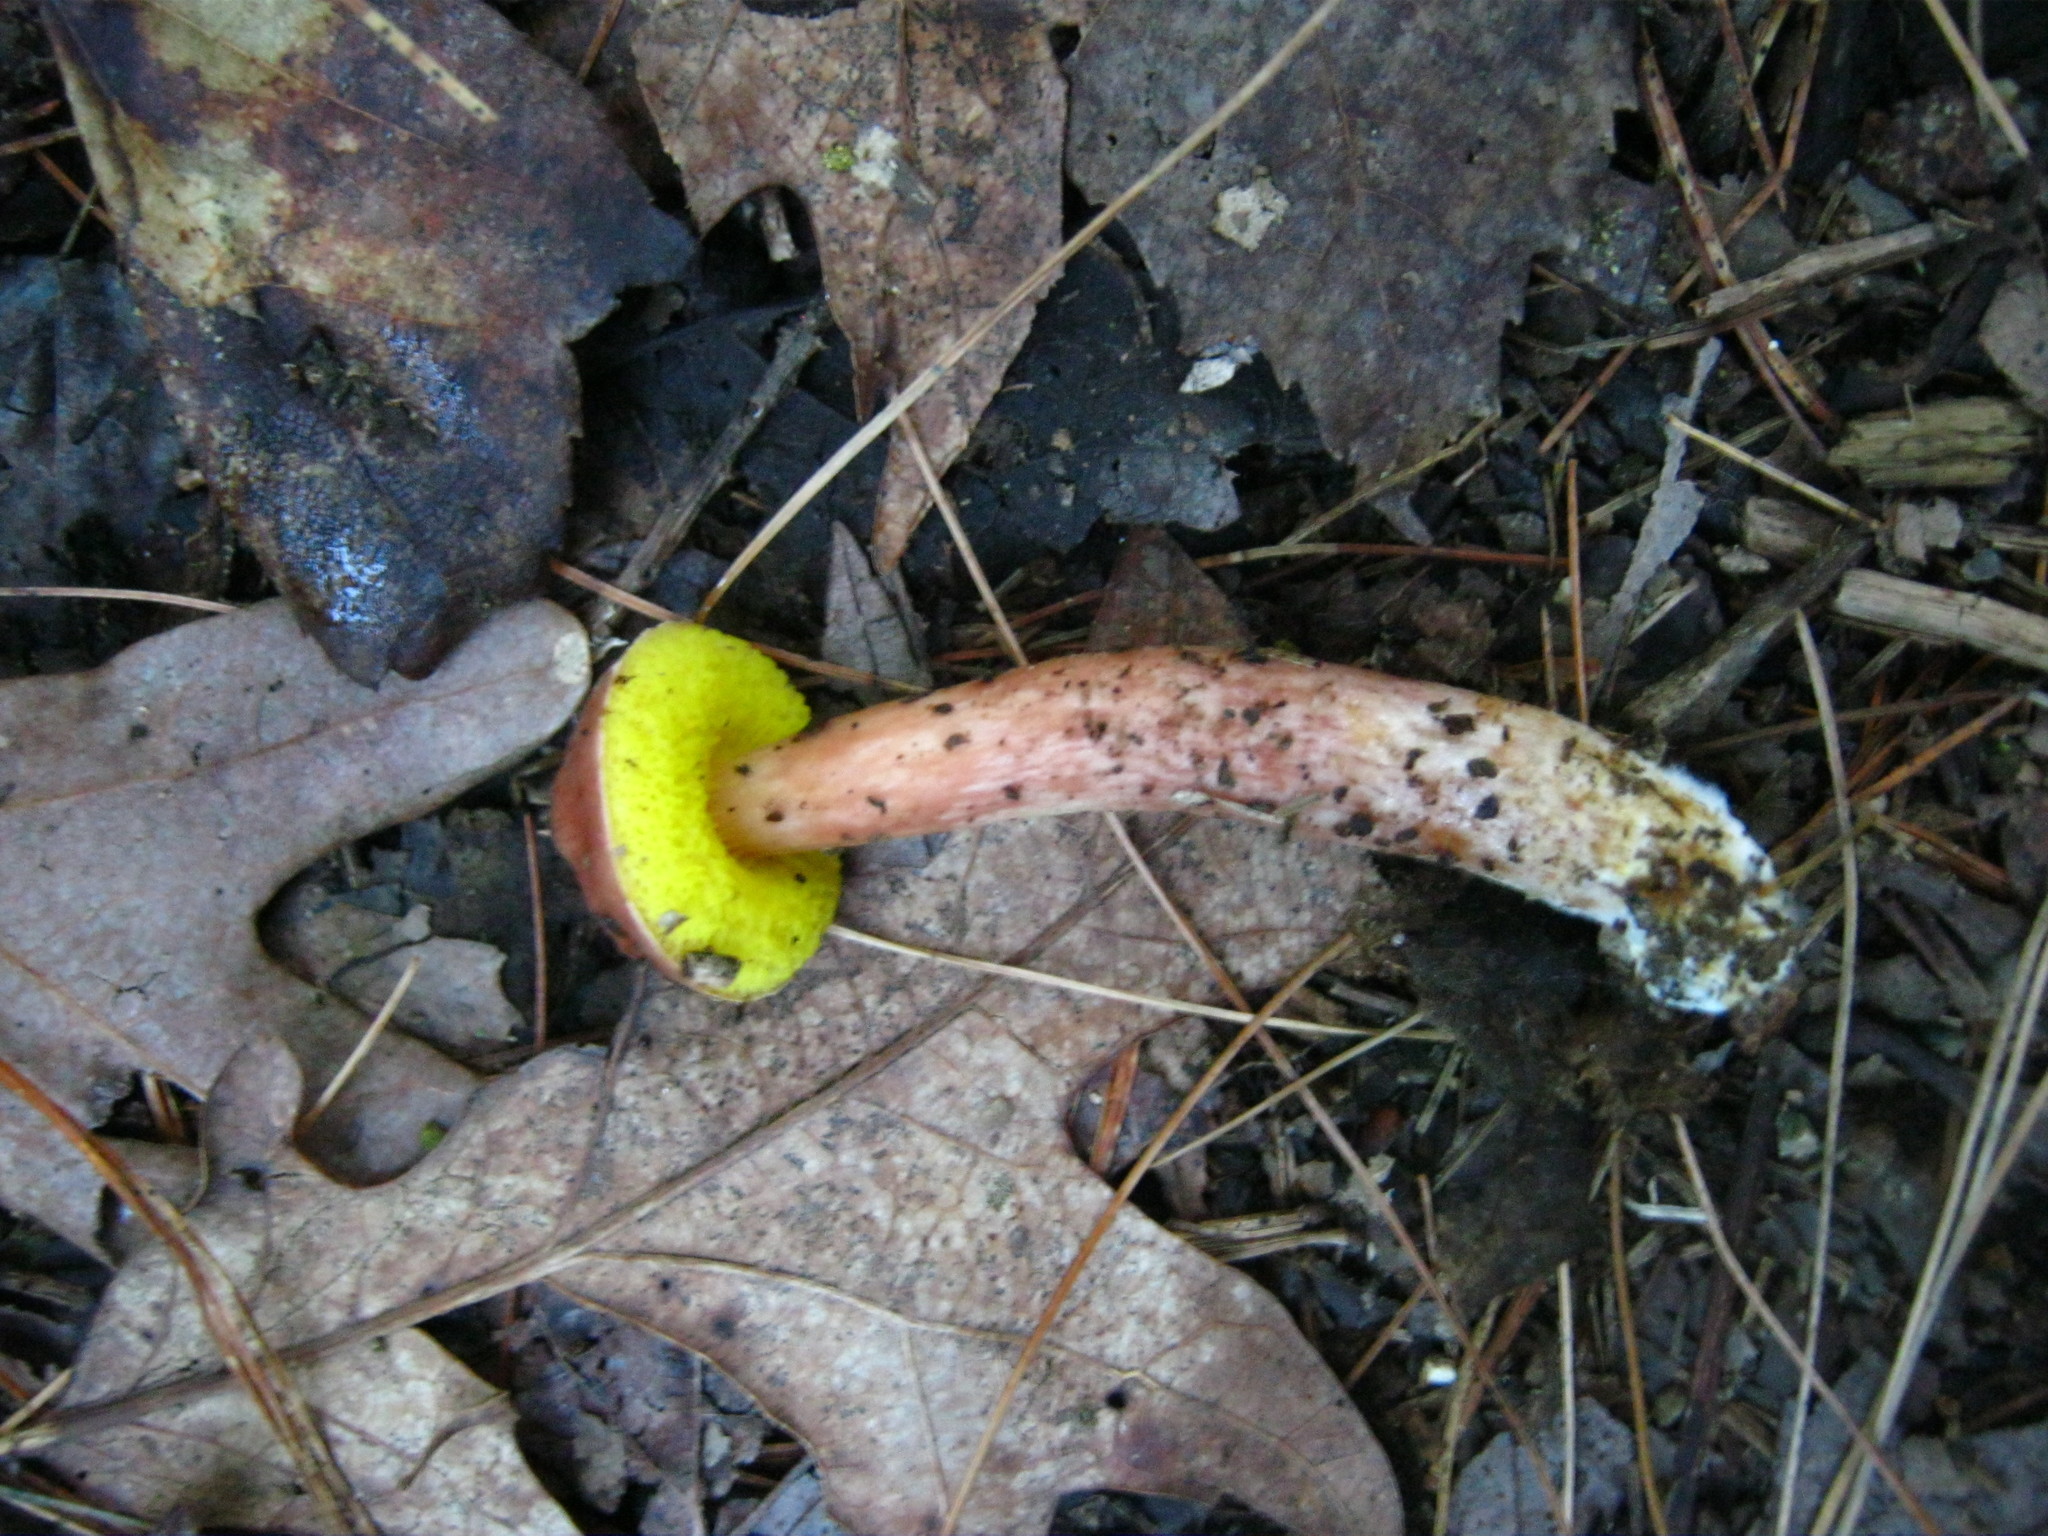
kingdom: Fungi
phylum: Basidiomycota
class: Agaricomycetes
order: Boletales
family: Boletaceae
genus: Aureoboletus
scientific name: Aureoboletus auriporus
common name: Sour gold-pored bolete
